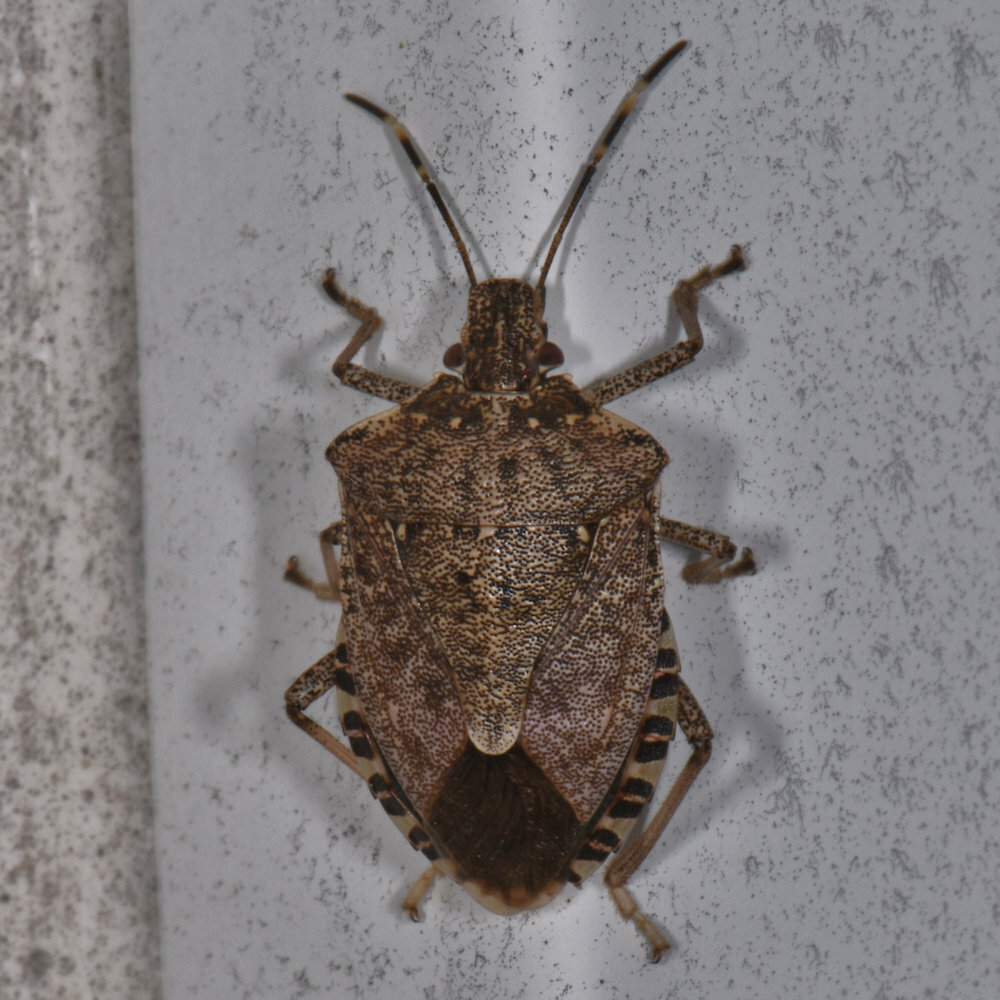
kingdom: Animalia
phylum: Arthropoda
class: Insecta
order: Hemiptera
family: Pentatomidae
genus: Halyomorpha
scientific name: Halyomorpha halys
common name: Brown marmorated stink bug
